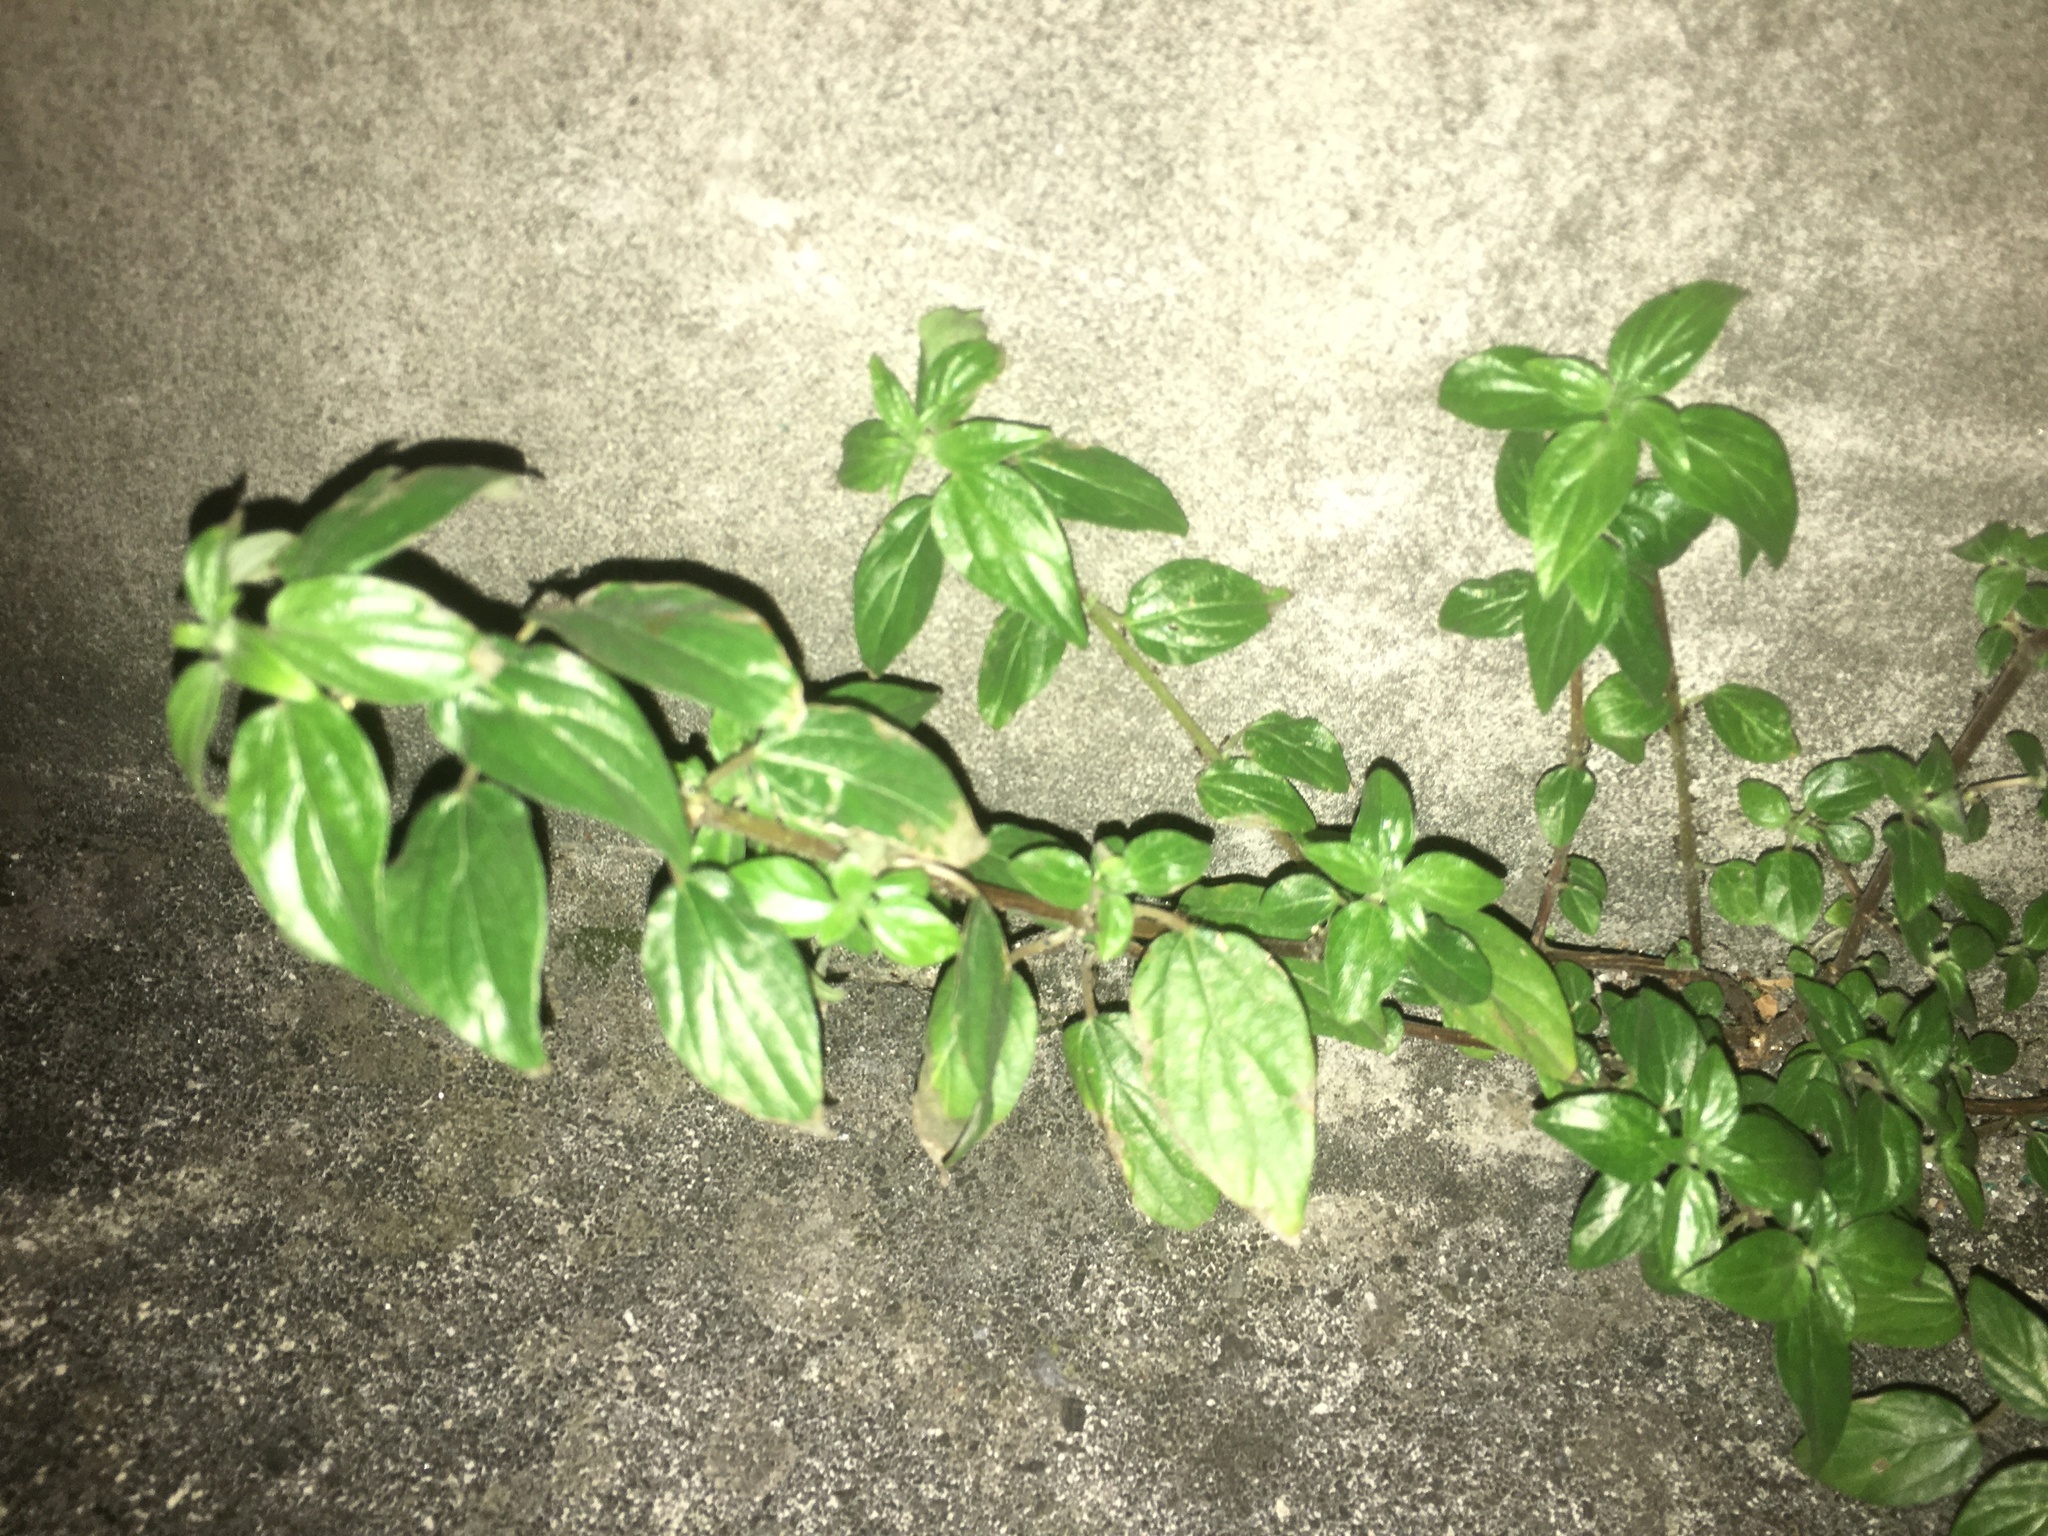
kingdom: Plantae
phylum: Tracheophyta
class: Magnoliopsida
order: Rosales
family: Urticaceae
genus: Pouzolzia
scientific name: Pouzolzia zeylanica
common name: Graceful pouzolzsbush
